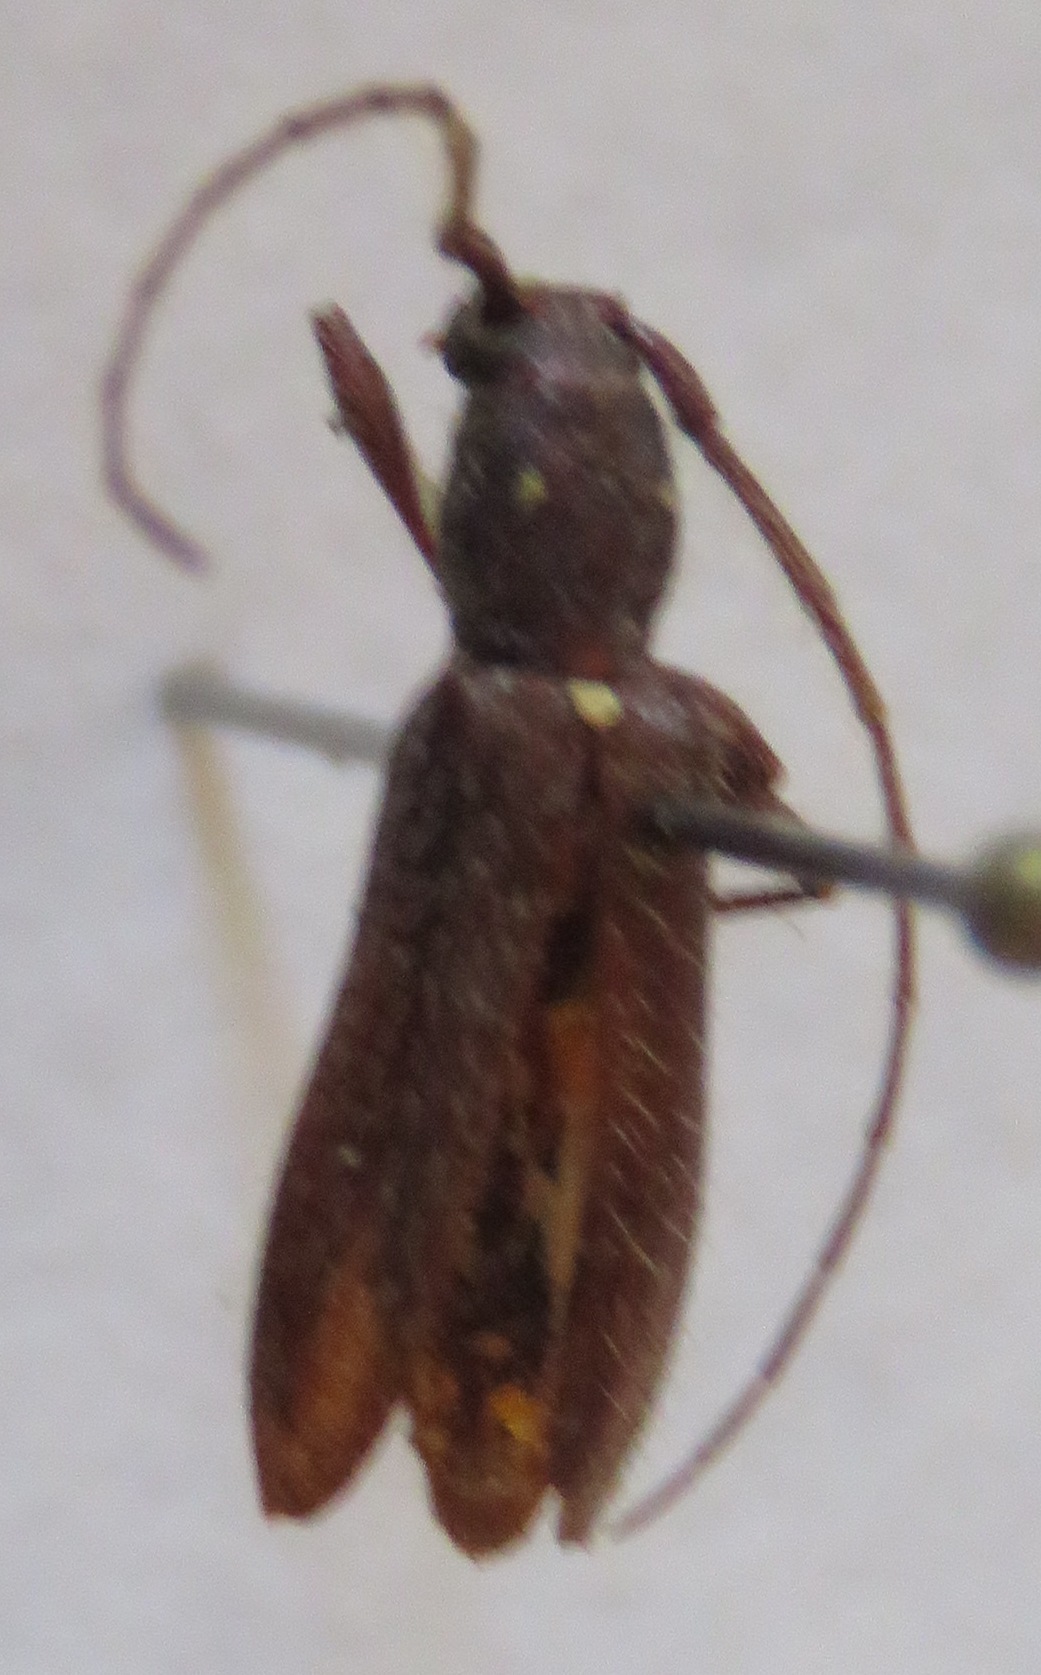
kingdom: Animalia
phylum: Arthropoda
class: Insecta
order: Coleoptera
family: Cerambycidae
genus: Anelaphus
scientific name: Anelaphus daedaleus
